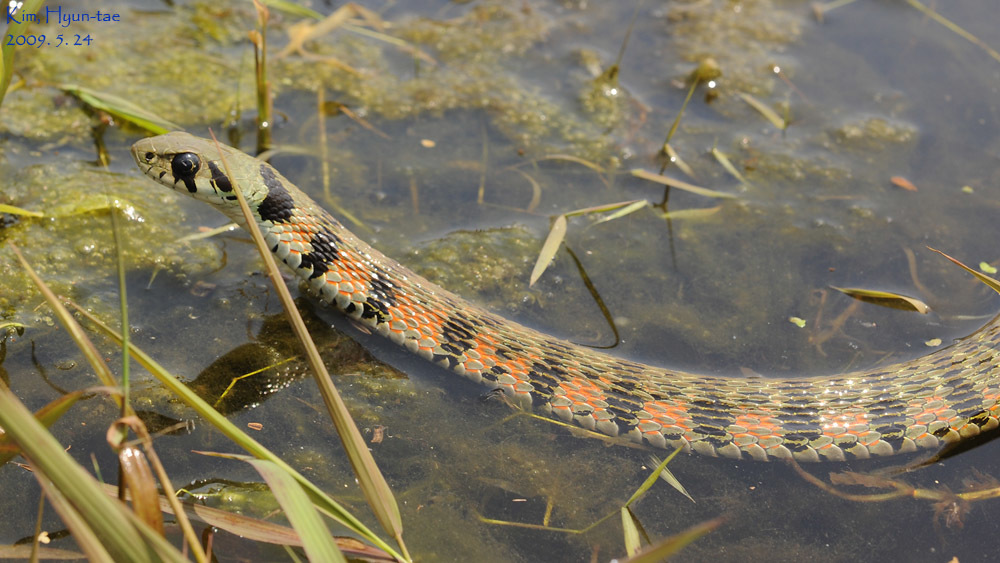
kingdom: Animalia
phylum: Chordata
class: Squamata
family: Colubridae
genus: Rhabdophis
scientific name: Rhabdophis tigrinus
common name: Tiger keelback
